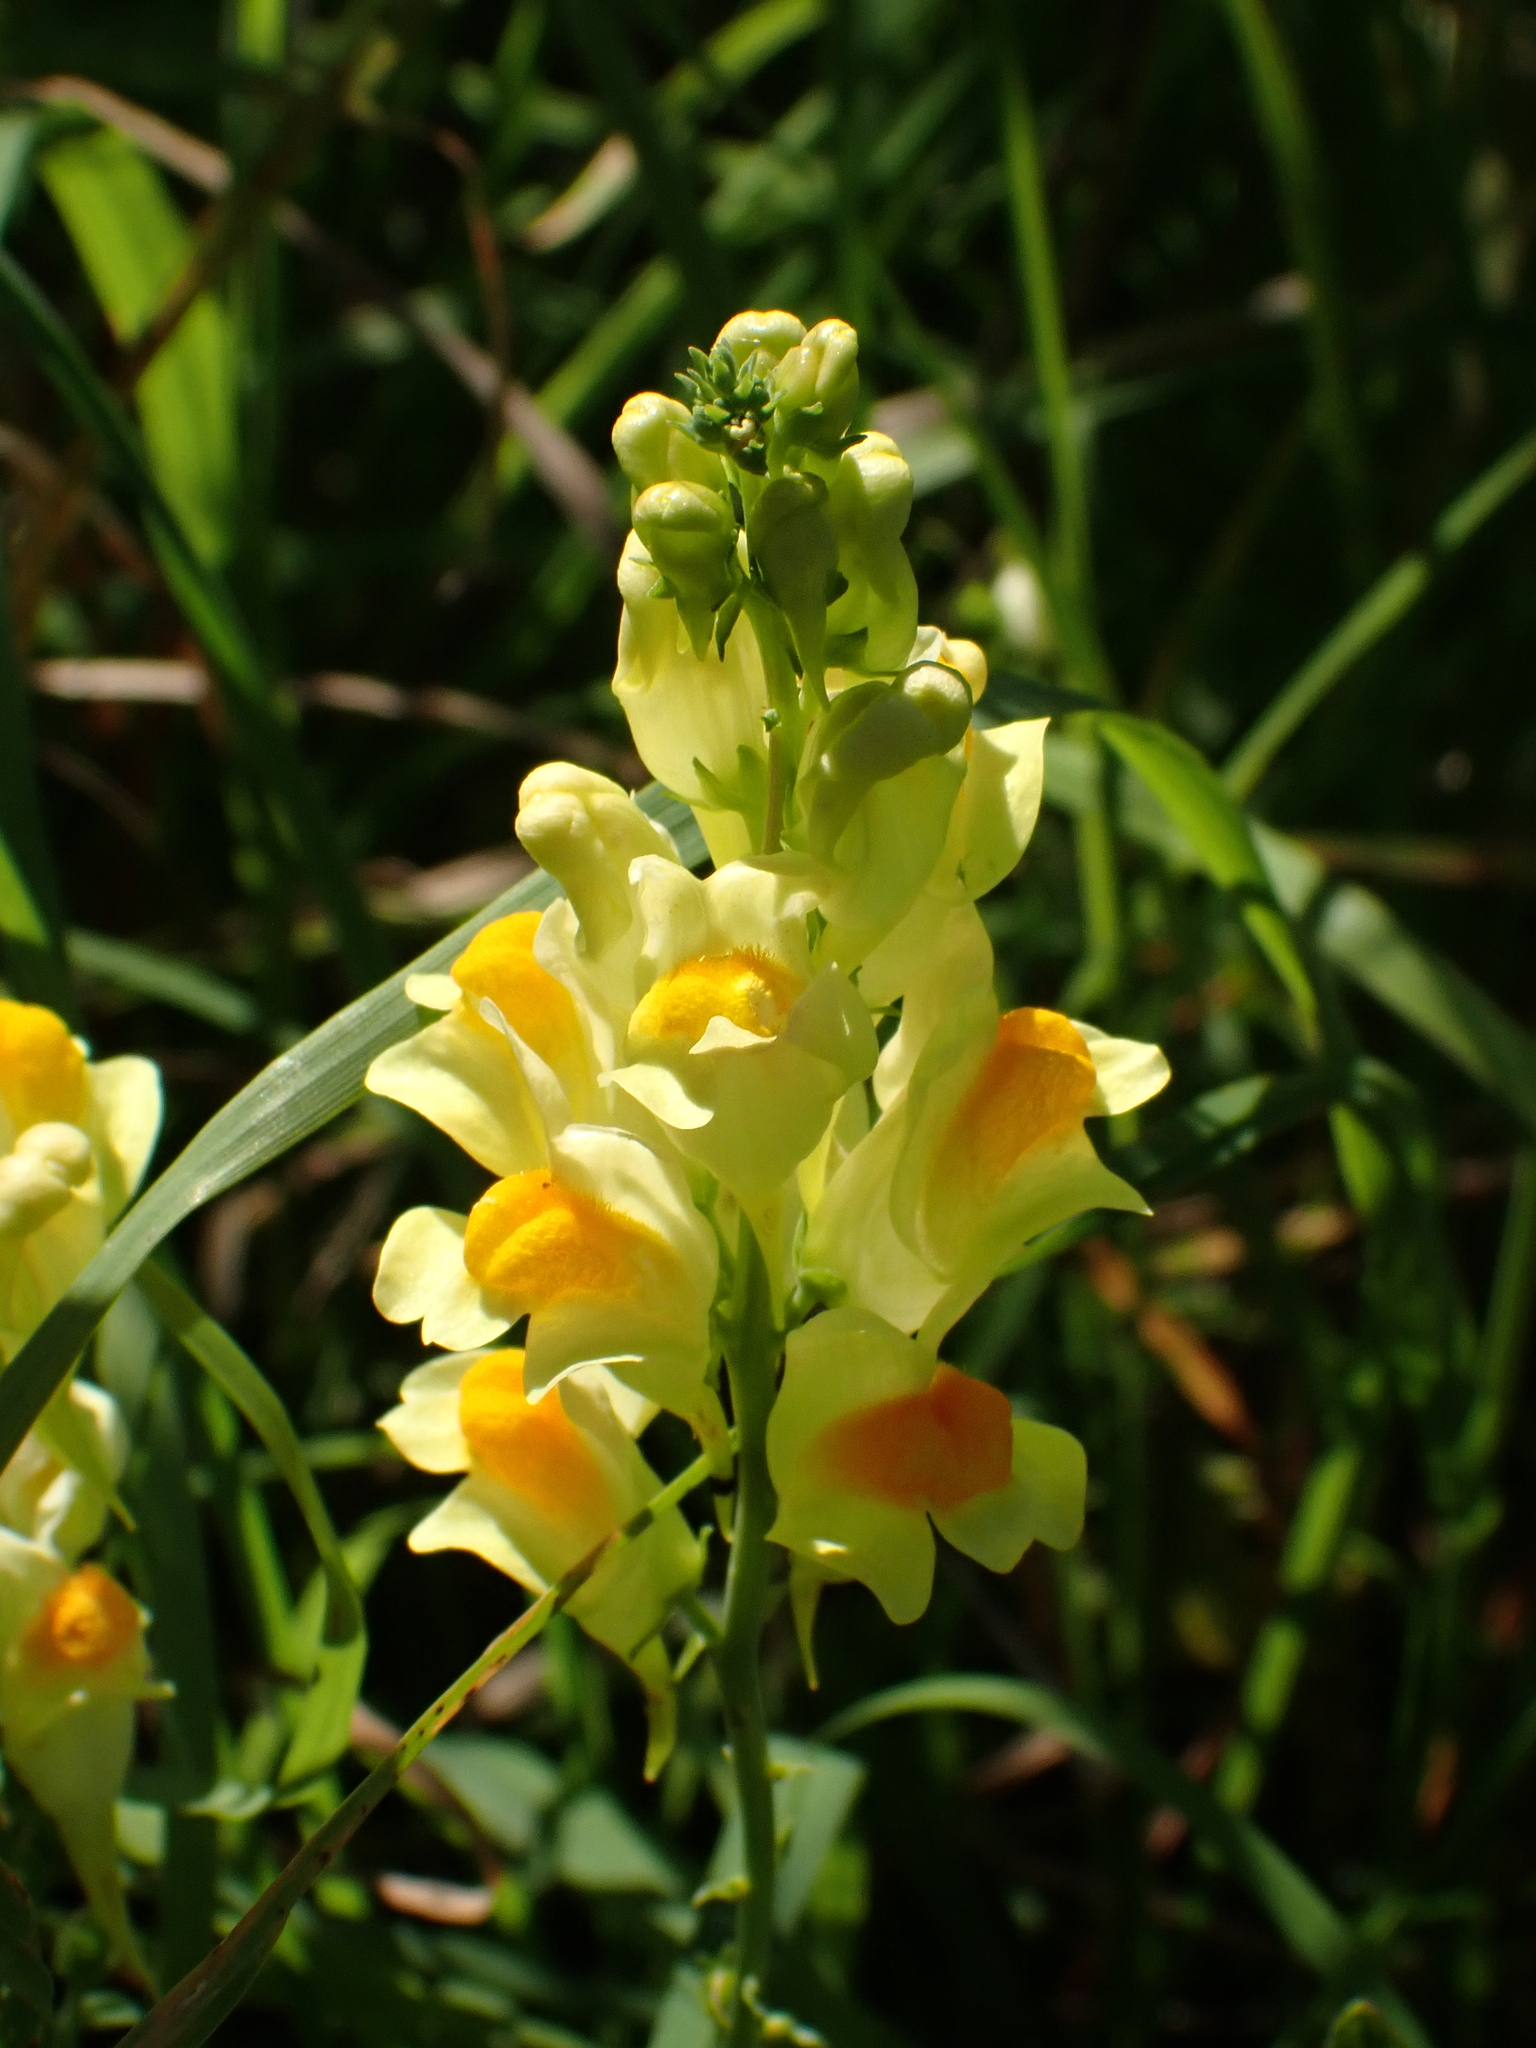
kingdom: Plantae
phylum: Tracheophyta
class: Magnoliopsida
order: Lamiales
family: Plantaginaceae
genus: Linaria
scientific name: Linaria vulgaris
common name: Butter and eggs
